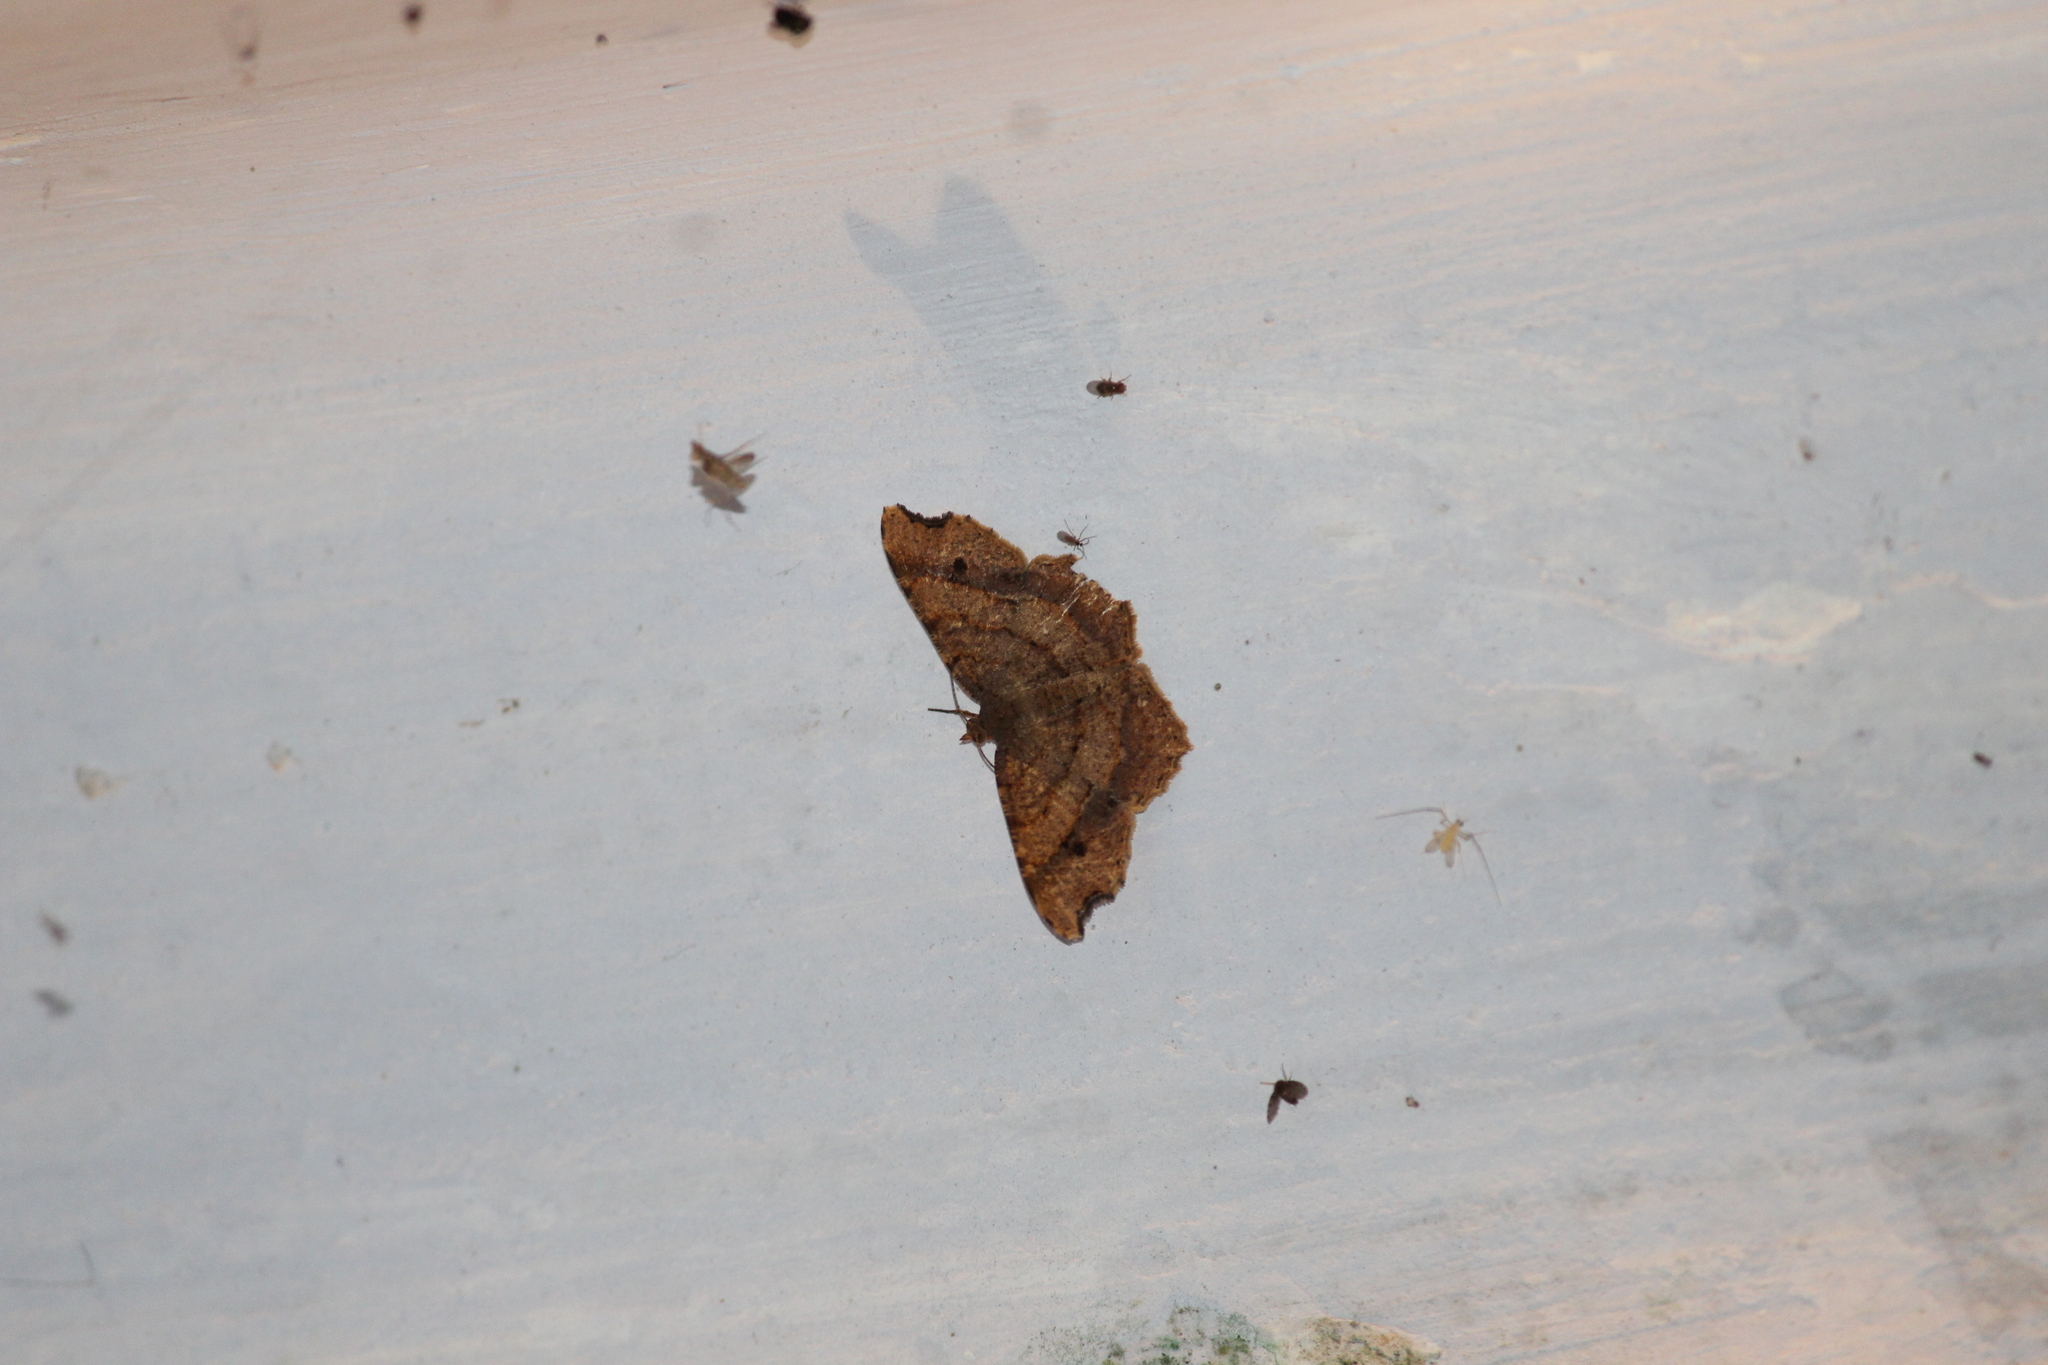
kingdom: Animalia
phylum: Arthropoda
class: Insecta
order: Lepidoptera
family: Geometridae
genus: Chiasmia
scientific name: Chiasmia perfusaria
